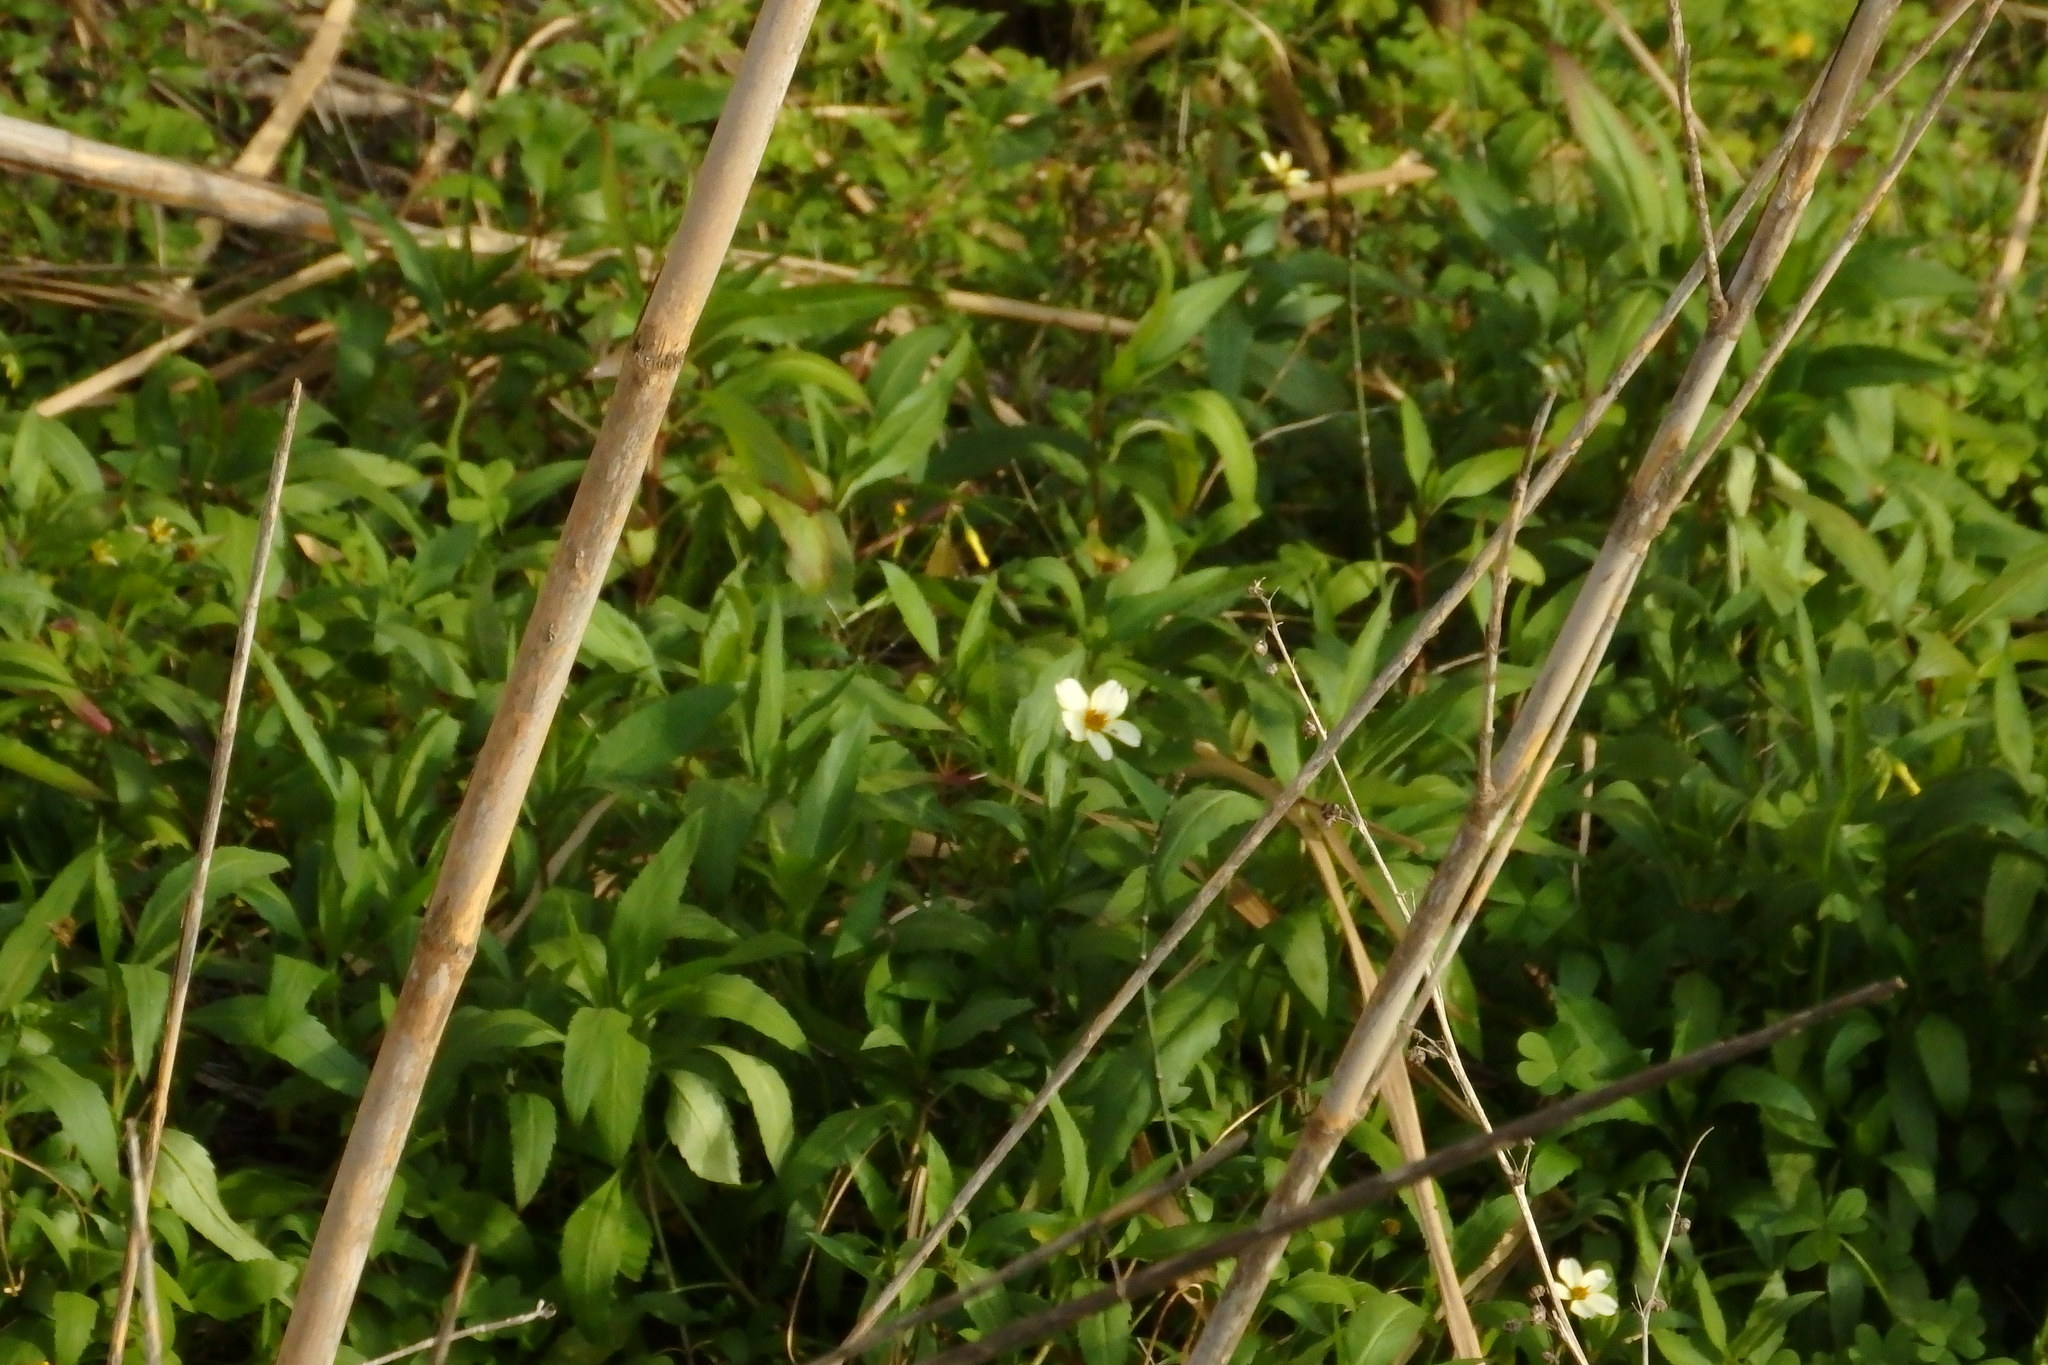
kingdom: Plantae
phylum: Tracheophyta
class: Magnoliopsida
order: Asterales
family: Asteraceae
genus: Bidens
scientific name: Bidens aurea
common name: Arizona beggar-ticks
